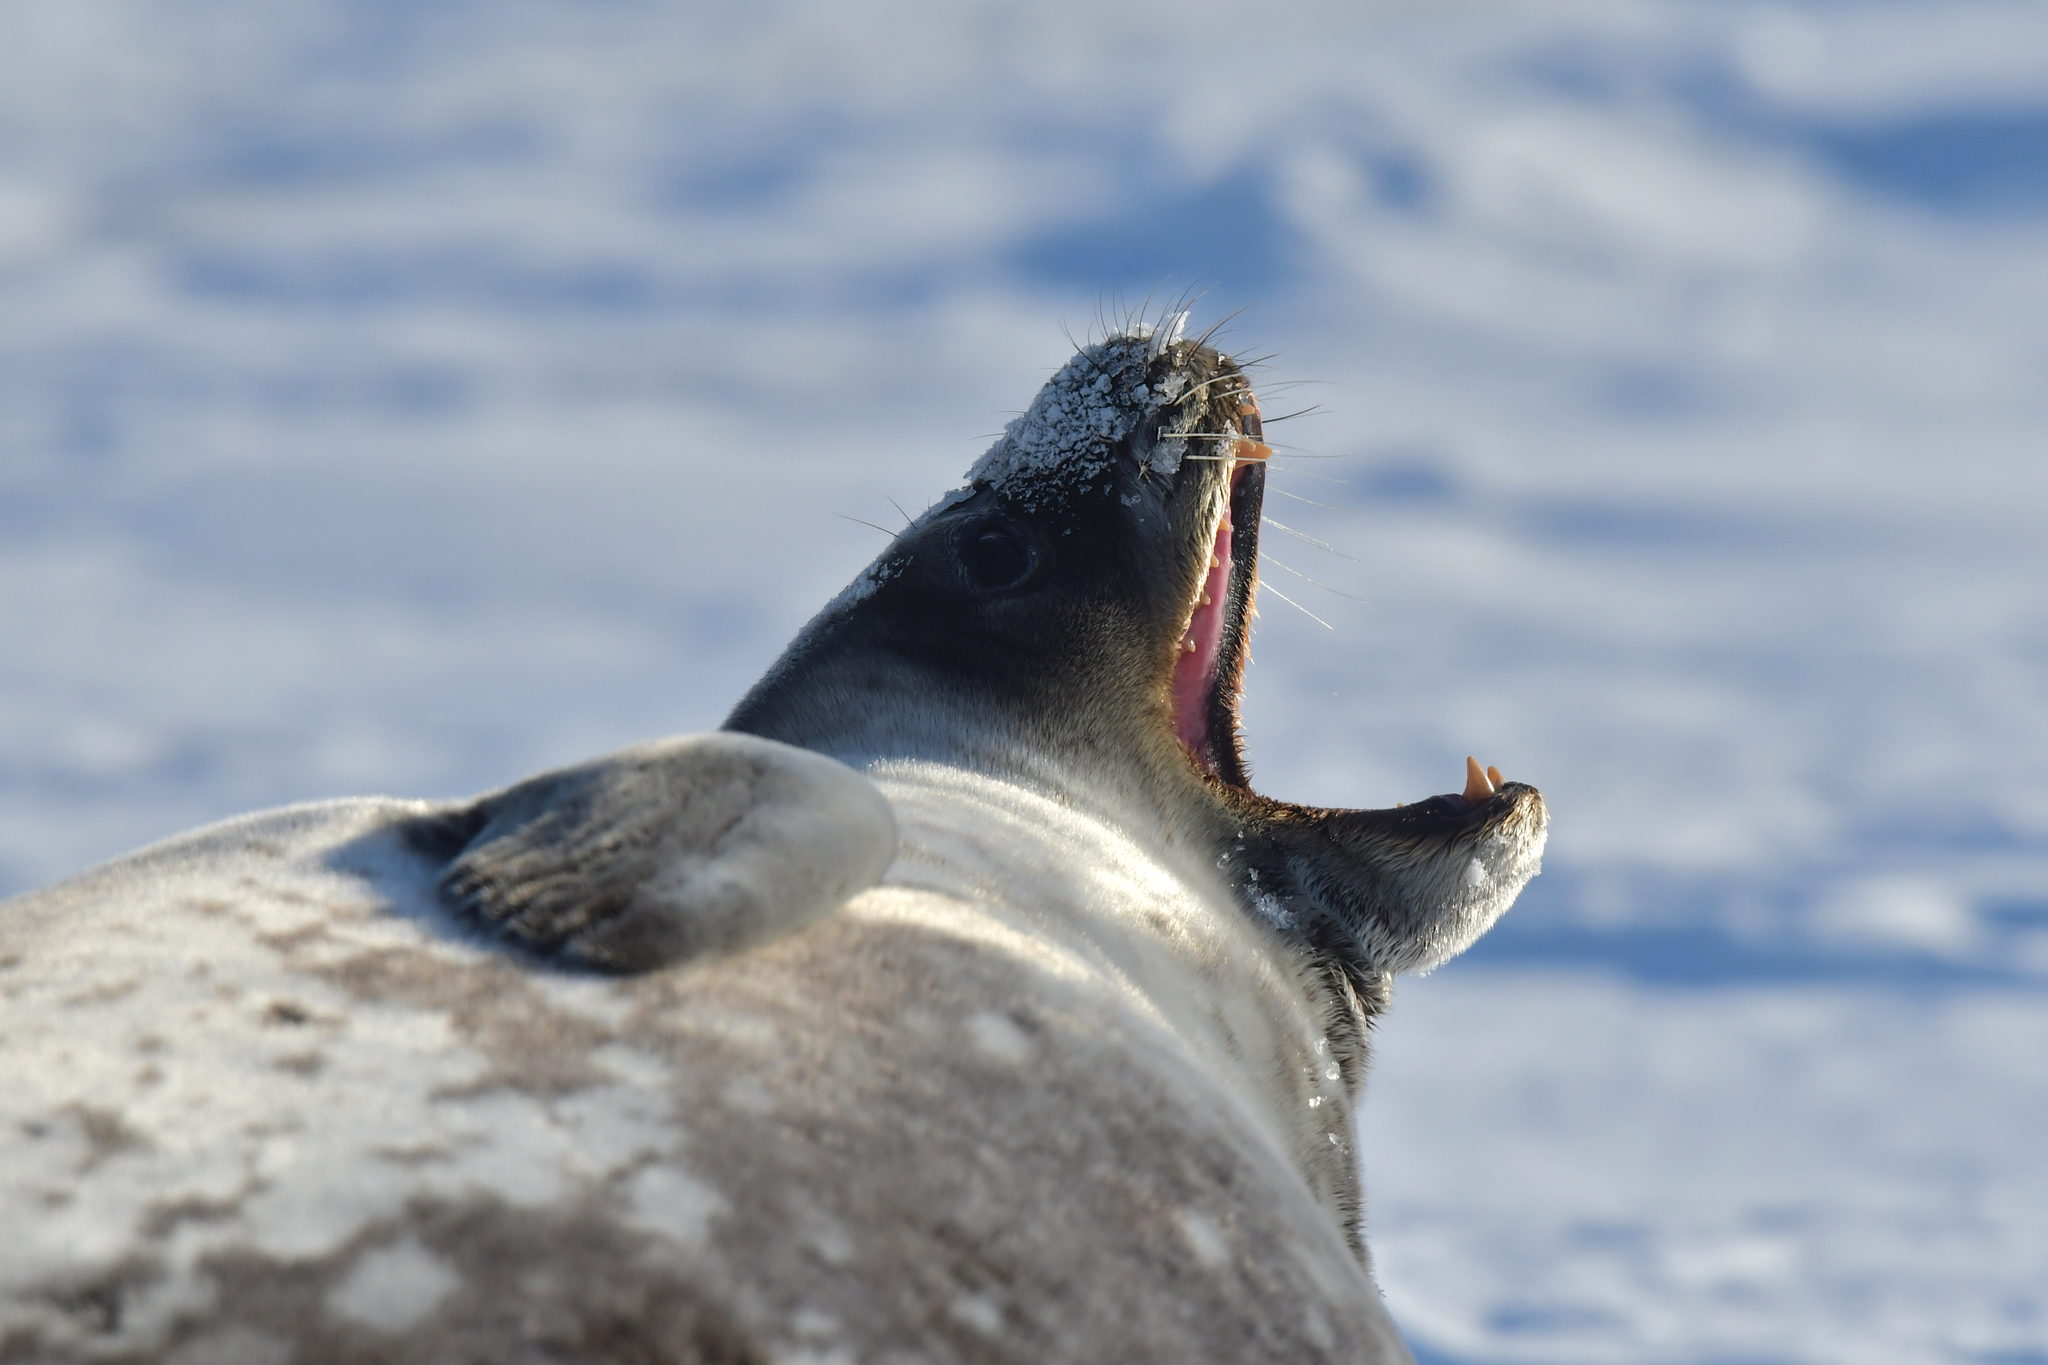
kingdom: Animalia
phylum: Chordata
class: Mammalia
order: Carnivora
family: Phocidae
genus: Leptonychotes
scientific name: Leptonychotes weddellii
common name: Weddell seal
